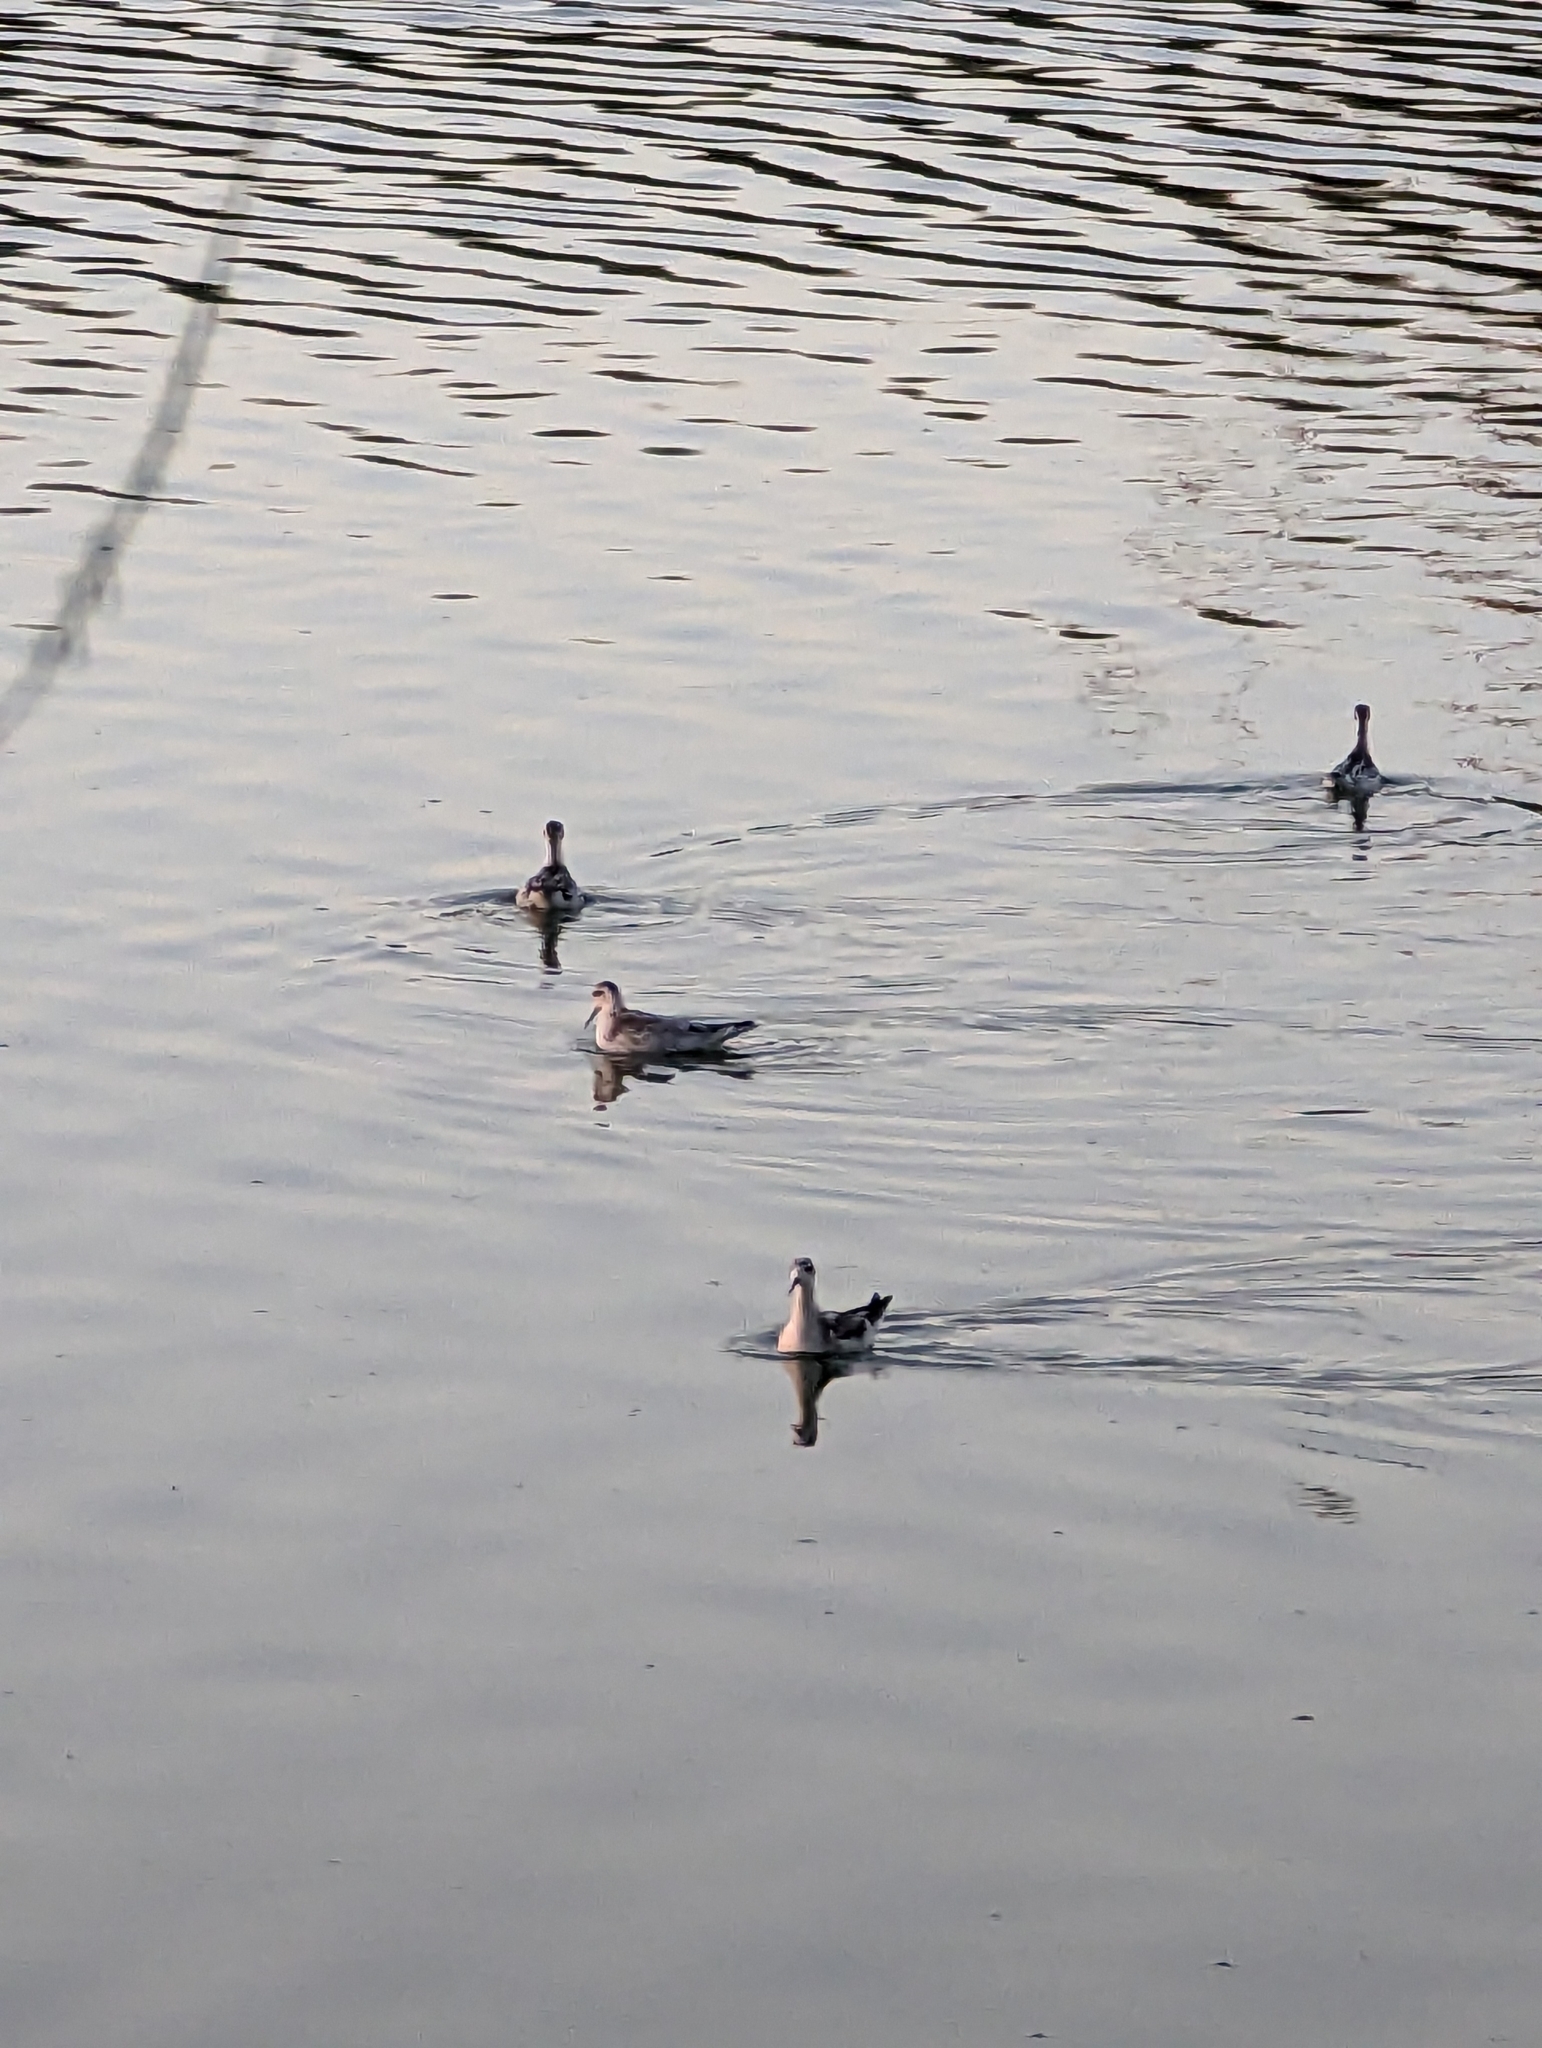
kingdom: Animalia
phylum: Chordata
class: Aves
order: Charadriiformes
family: Scolopacidae
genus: Phalaropus
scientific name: Phalaropus lobatus
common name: Red-necked phalarope
